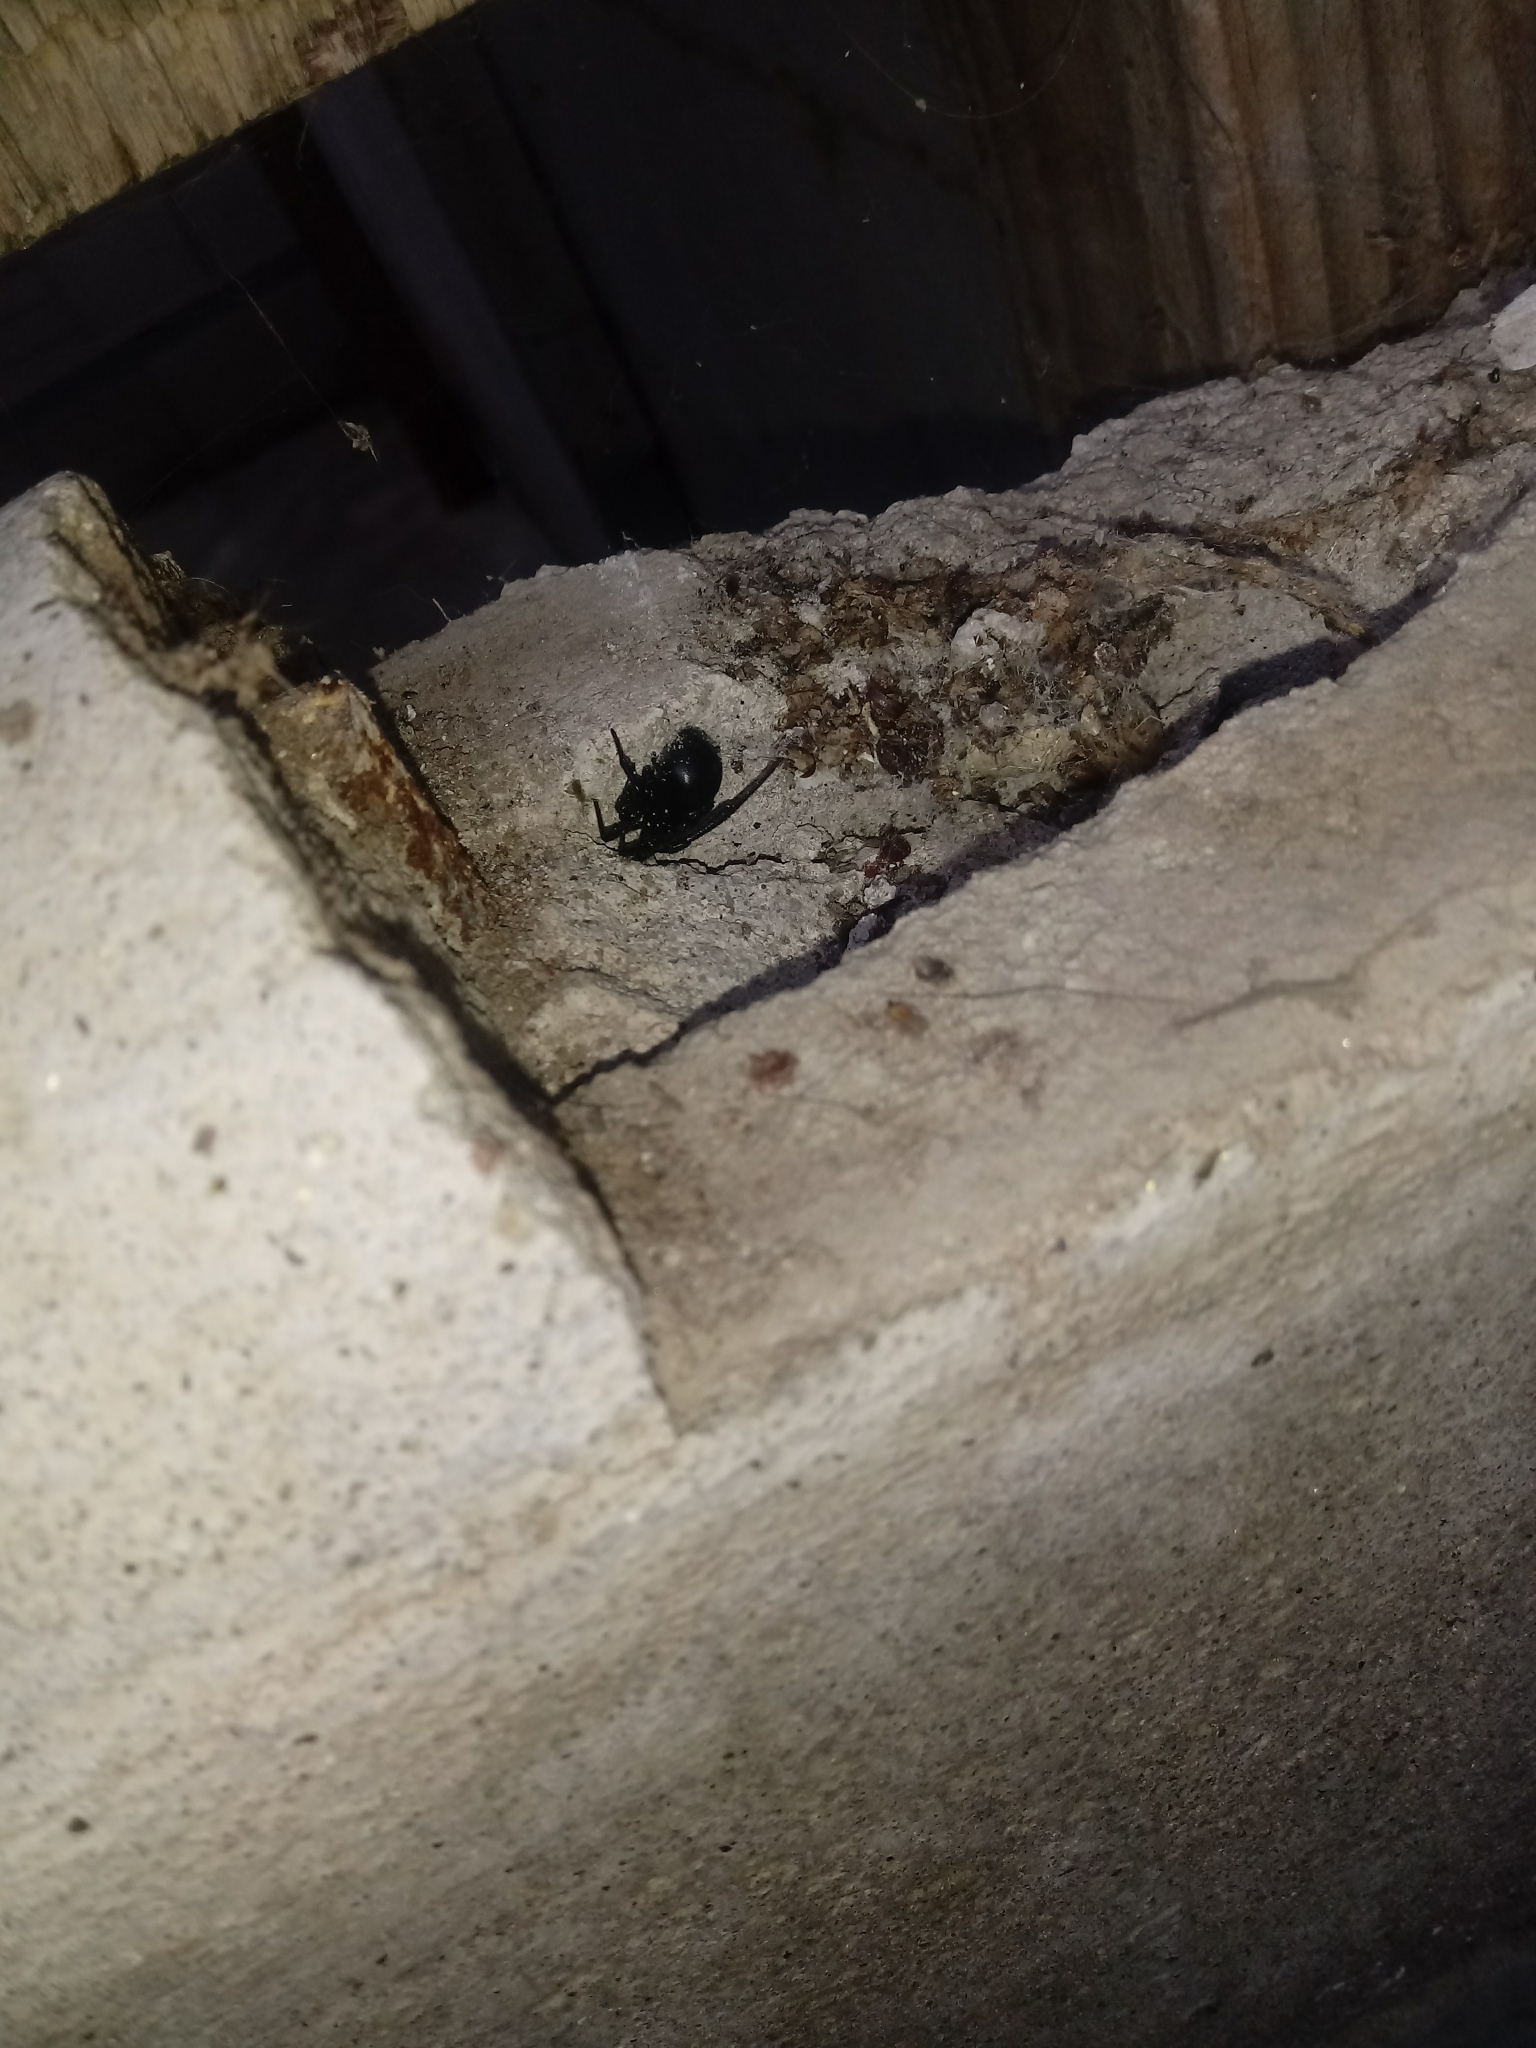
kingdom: Animalia
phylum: Arthropoda
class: Arachnida
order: Araneae
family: Theridiidae
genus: Latrodectus
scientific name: Latrodectus hesperus
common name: Western black widow
